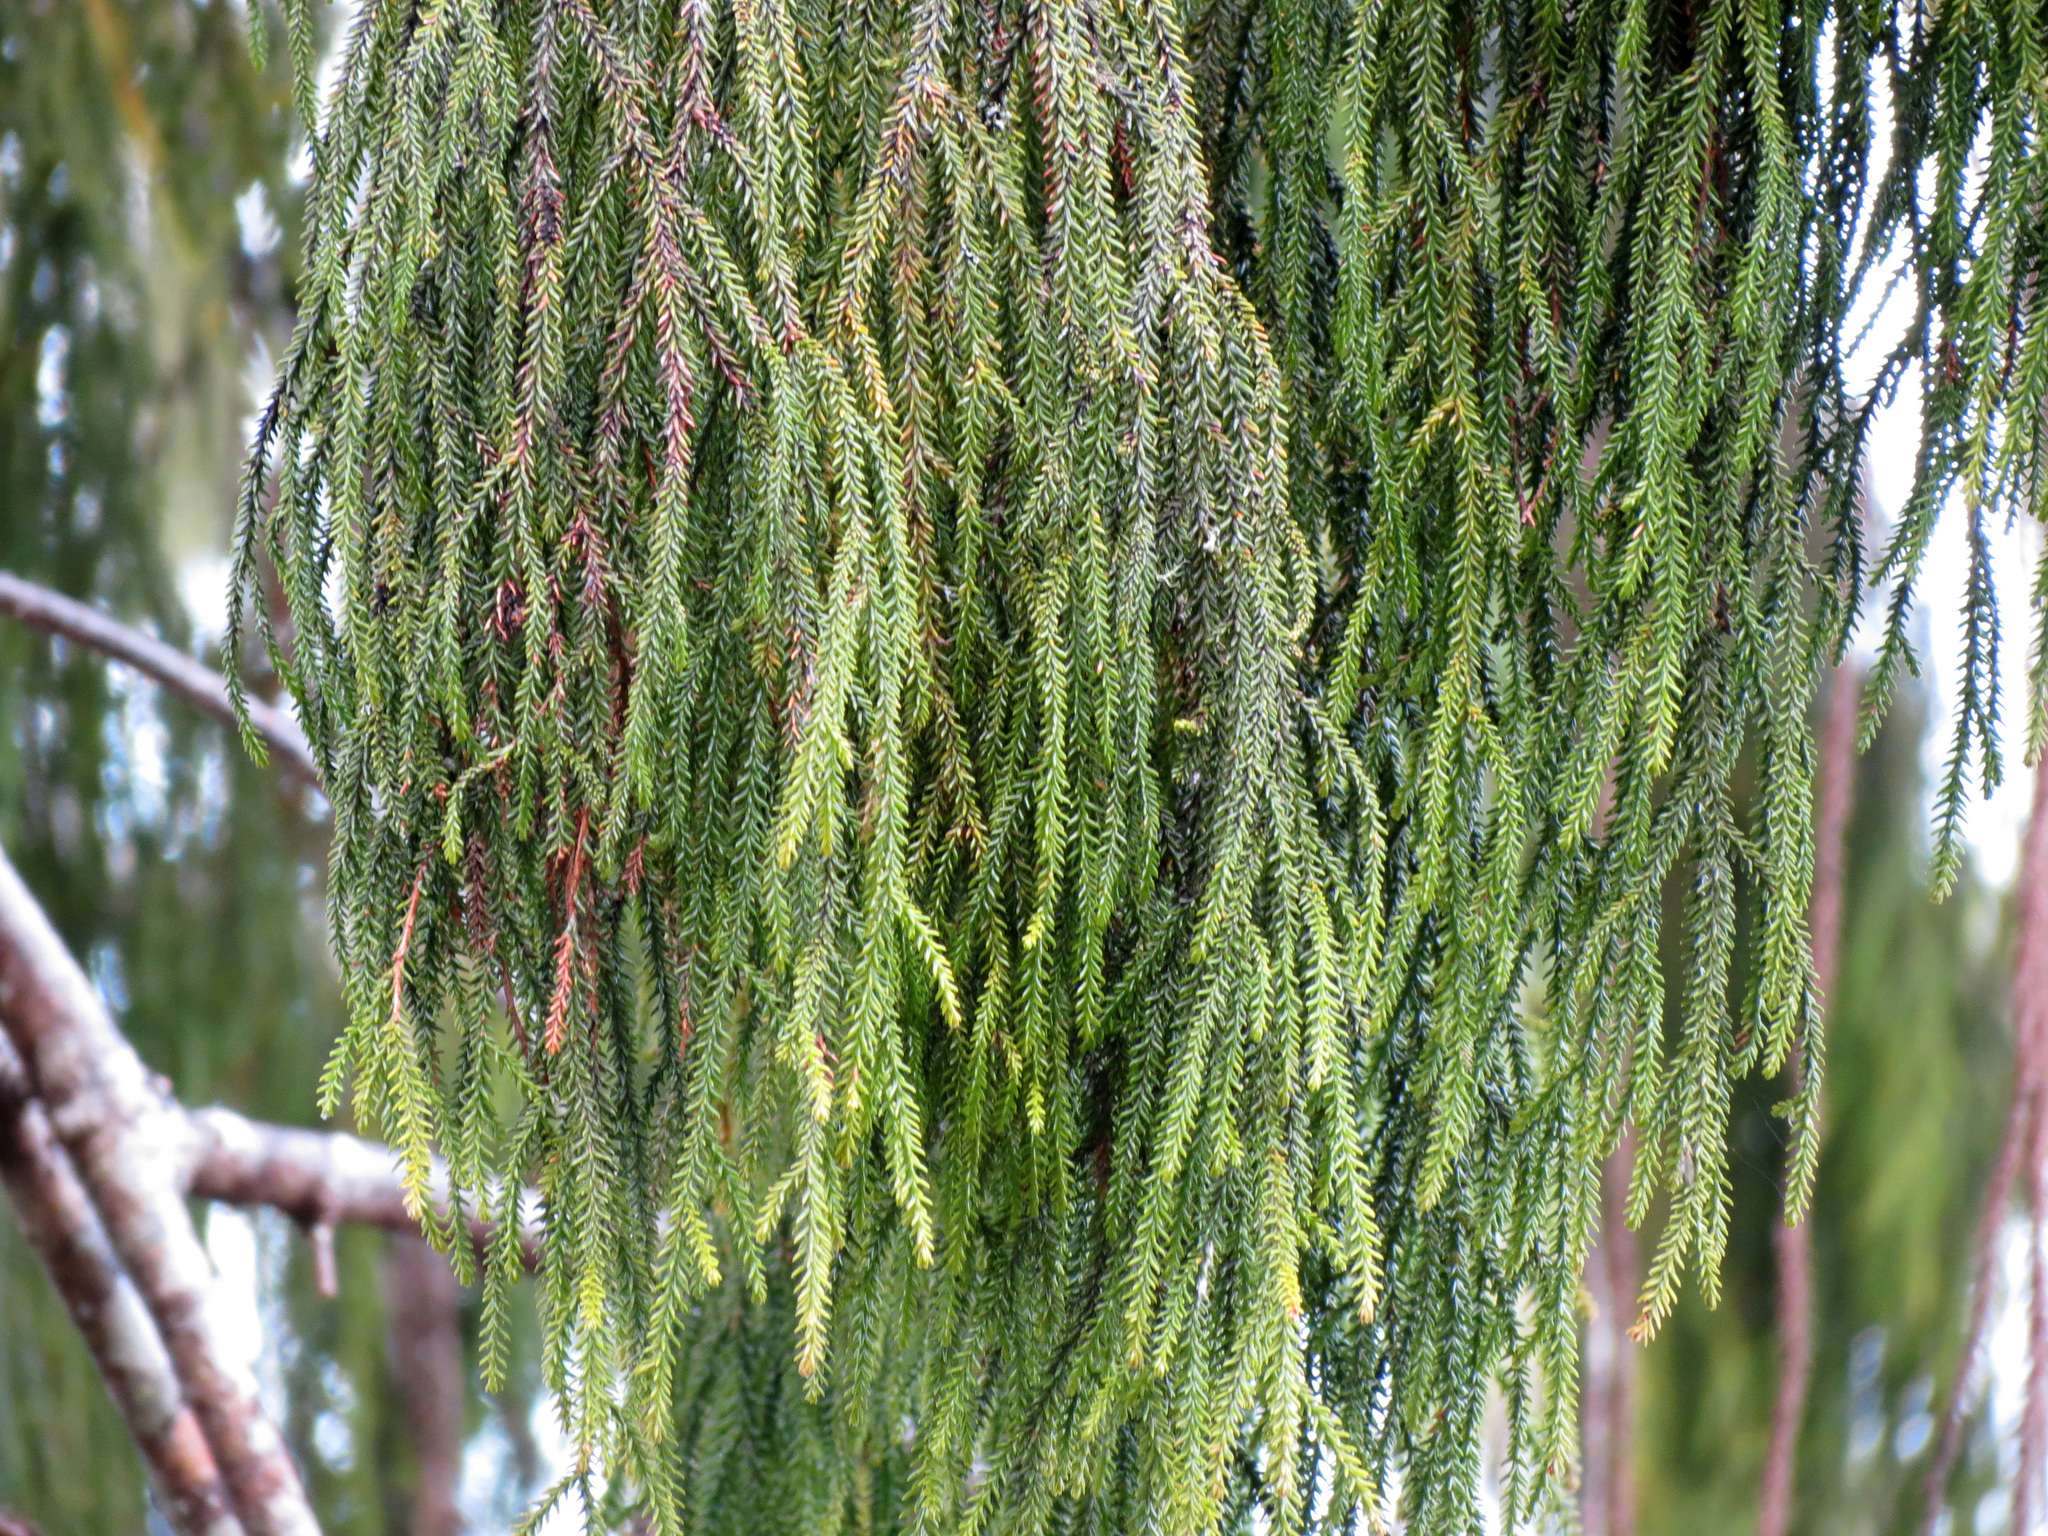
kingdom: Plantae
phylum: Tracheophyta
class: Pinopsida
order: Pinales
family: Podocarpaceae
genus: Dacrydium
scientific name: Dacrydium cupressinum
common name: Red pine
